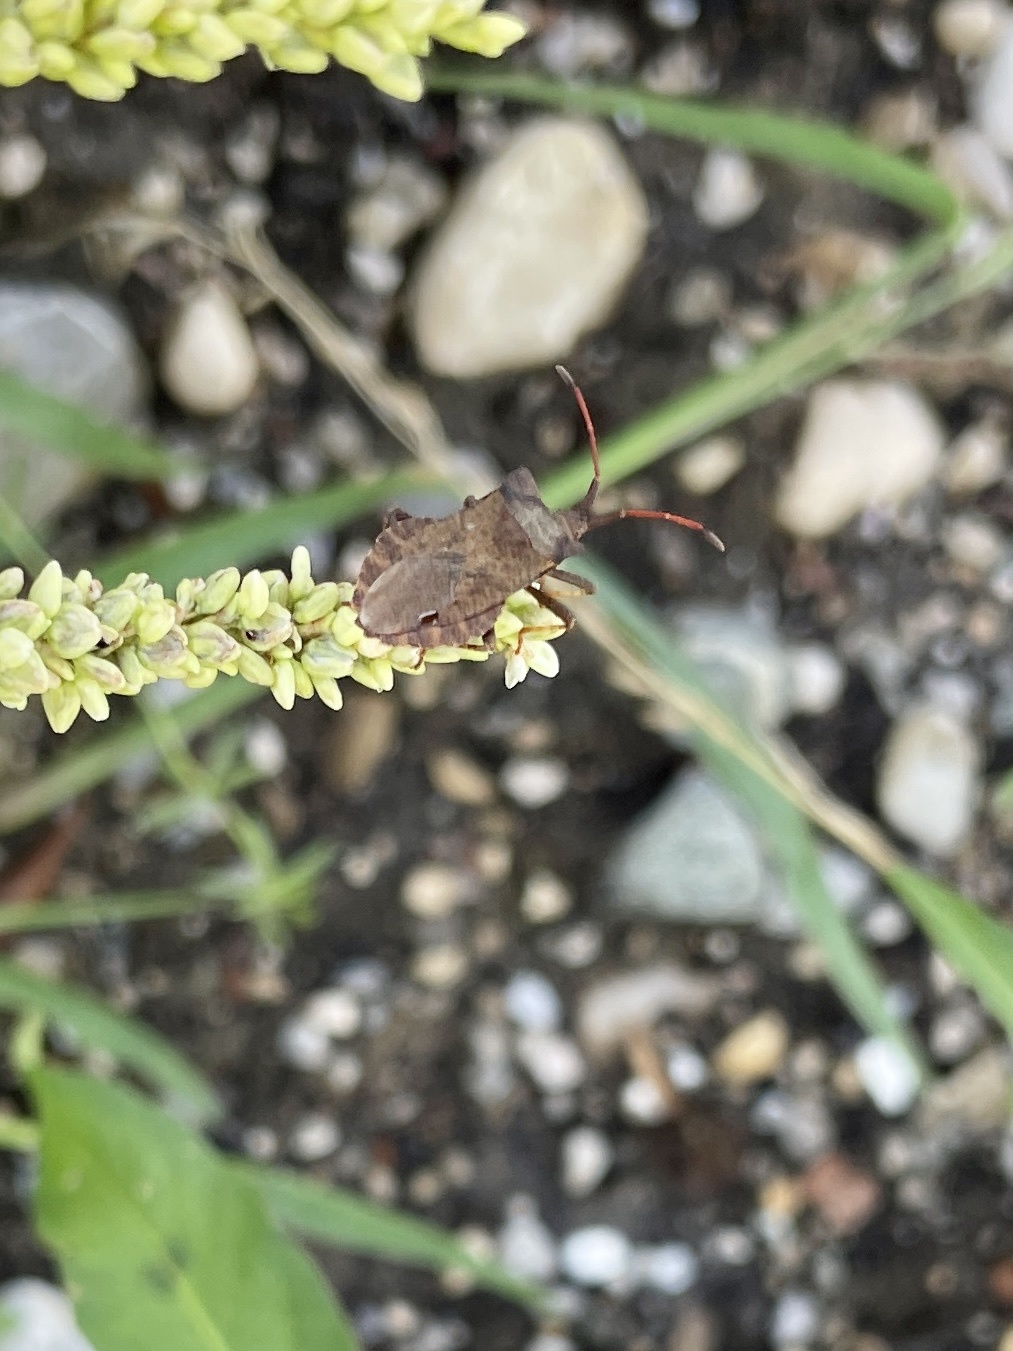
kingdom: Animalia
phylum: Arthropoda
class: Insecta
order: Hemiptera
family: Coreidae
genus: Coreus
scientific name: Coreus marginatus
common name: Dock bug
